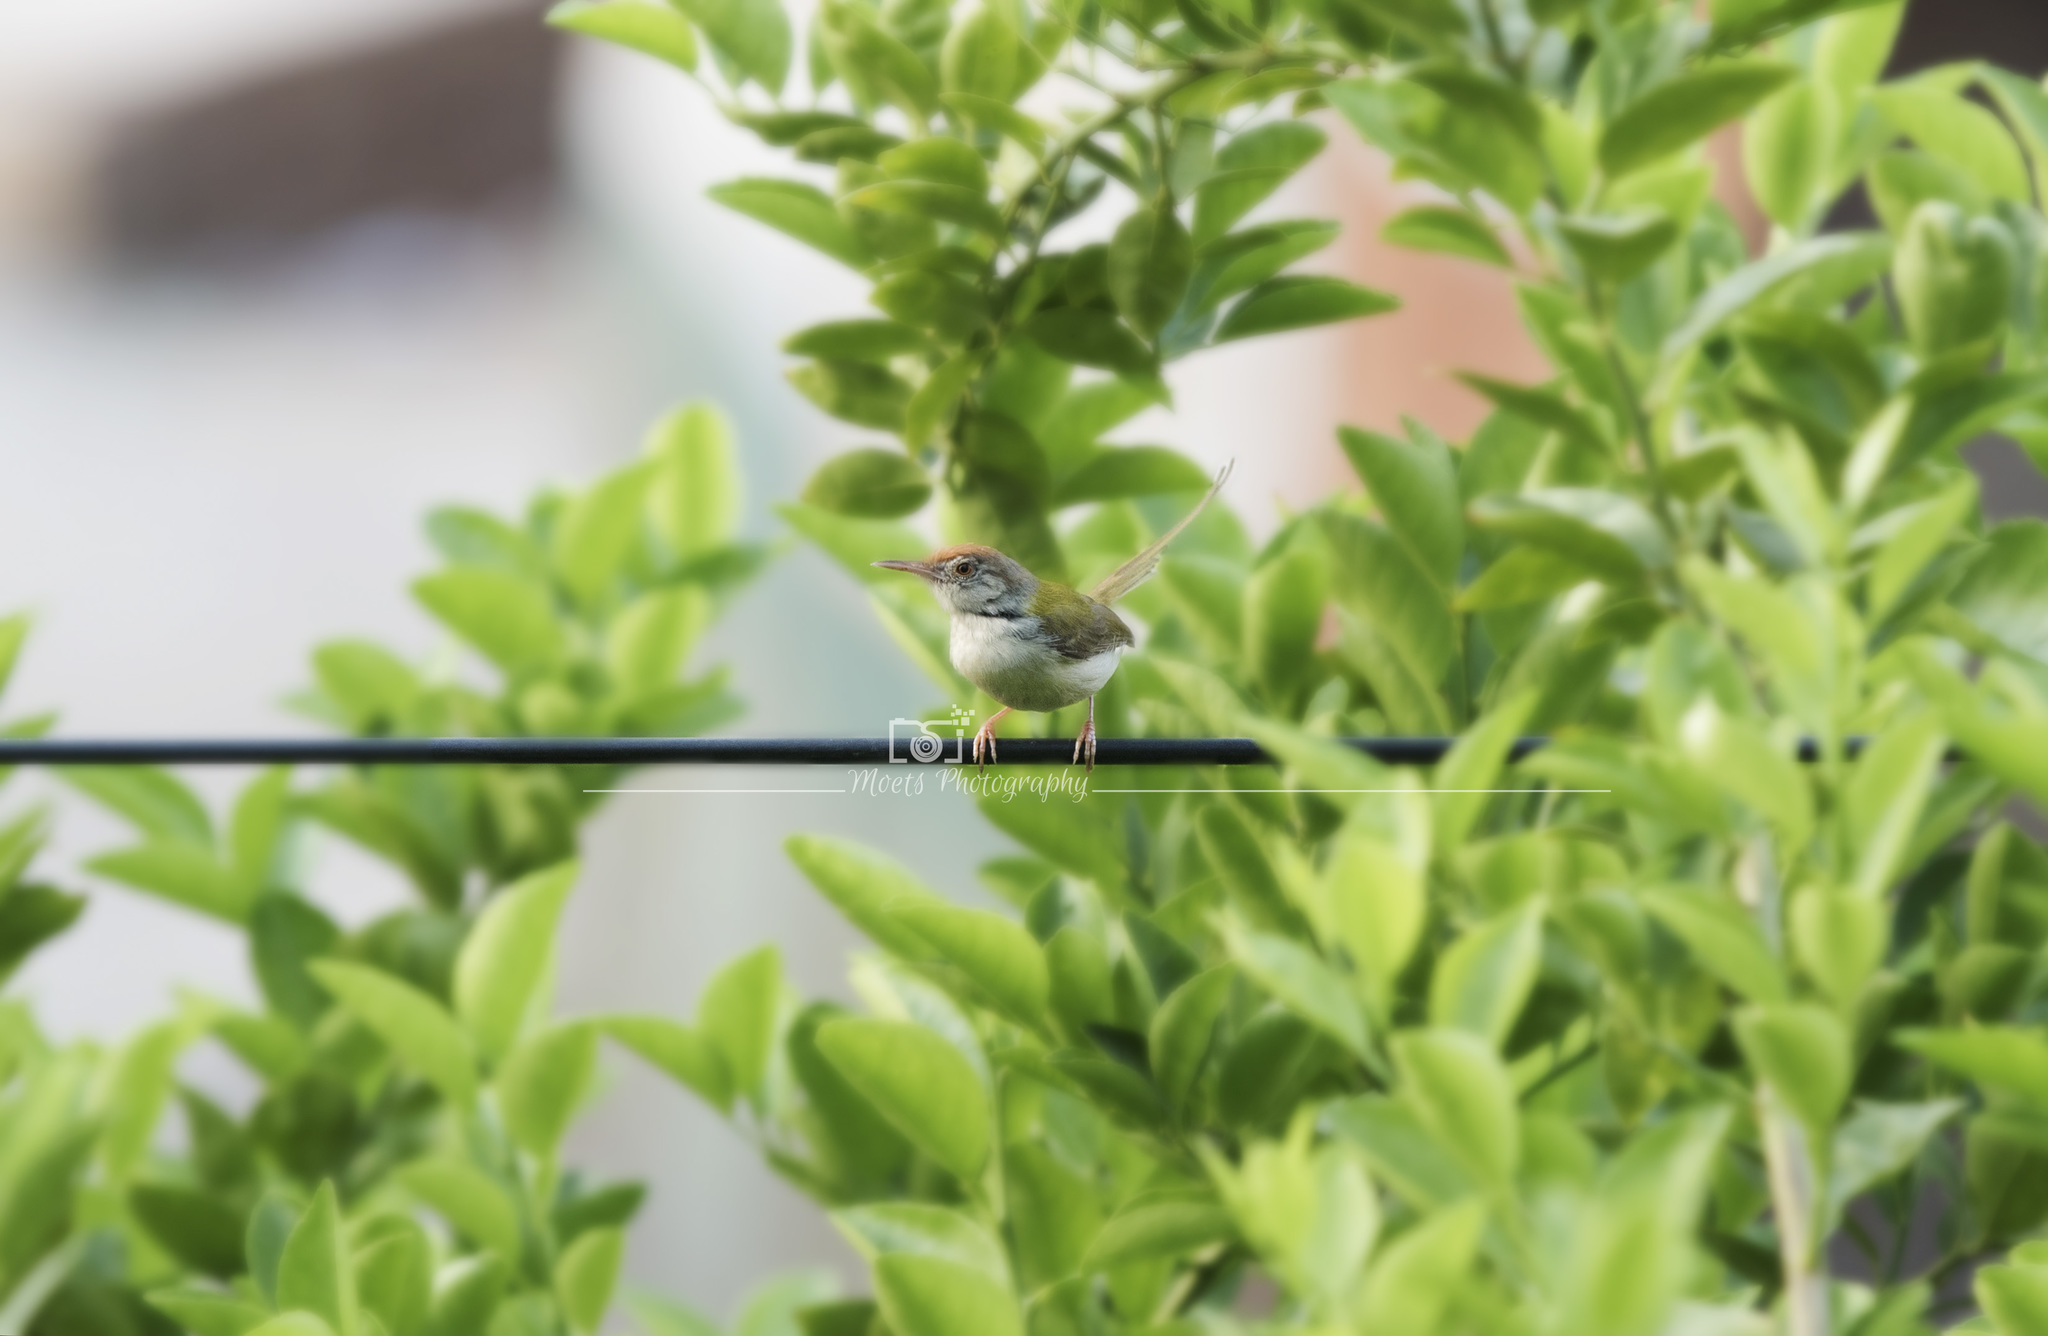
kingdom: Animalia
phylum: Chordata
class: Aves
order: Passeriformes
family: Cisticolidae
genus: Orthotomus
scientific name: Orthotomus sutorius
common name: Common tailorbird
